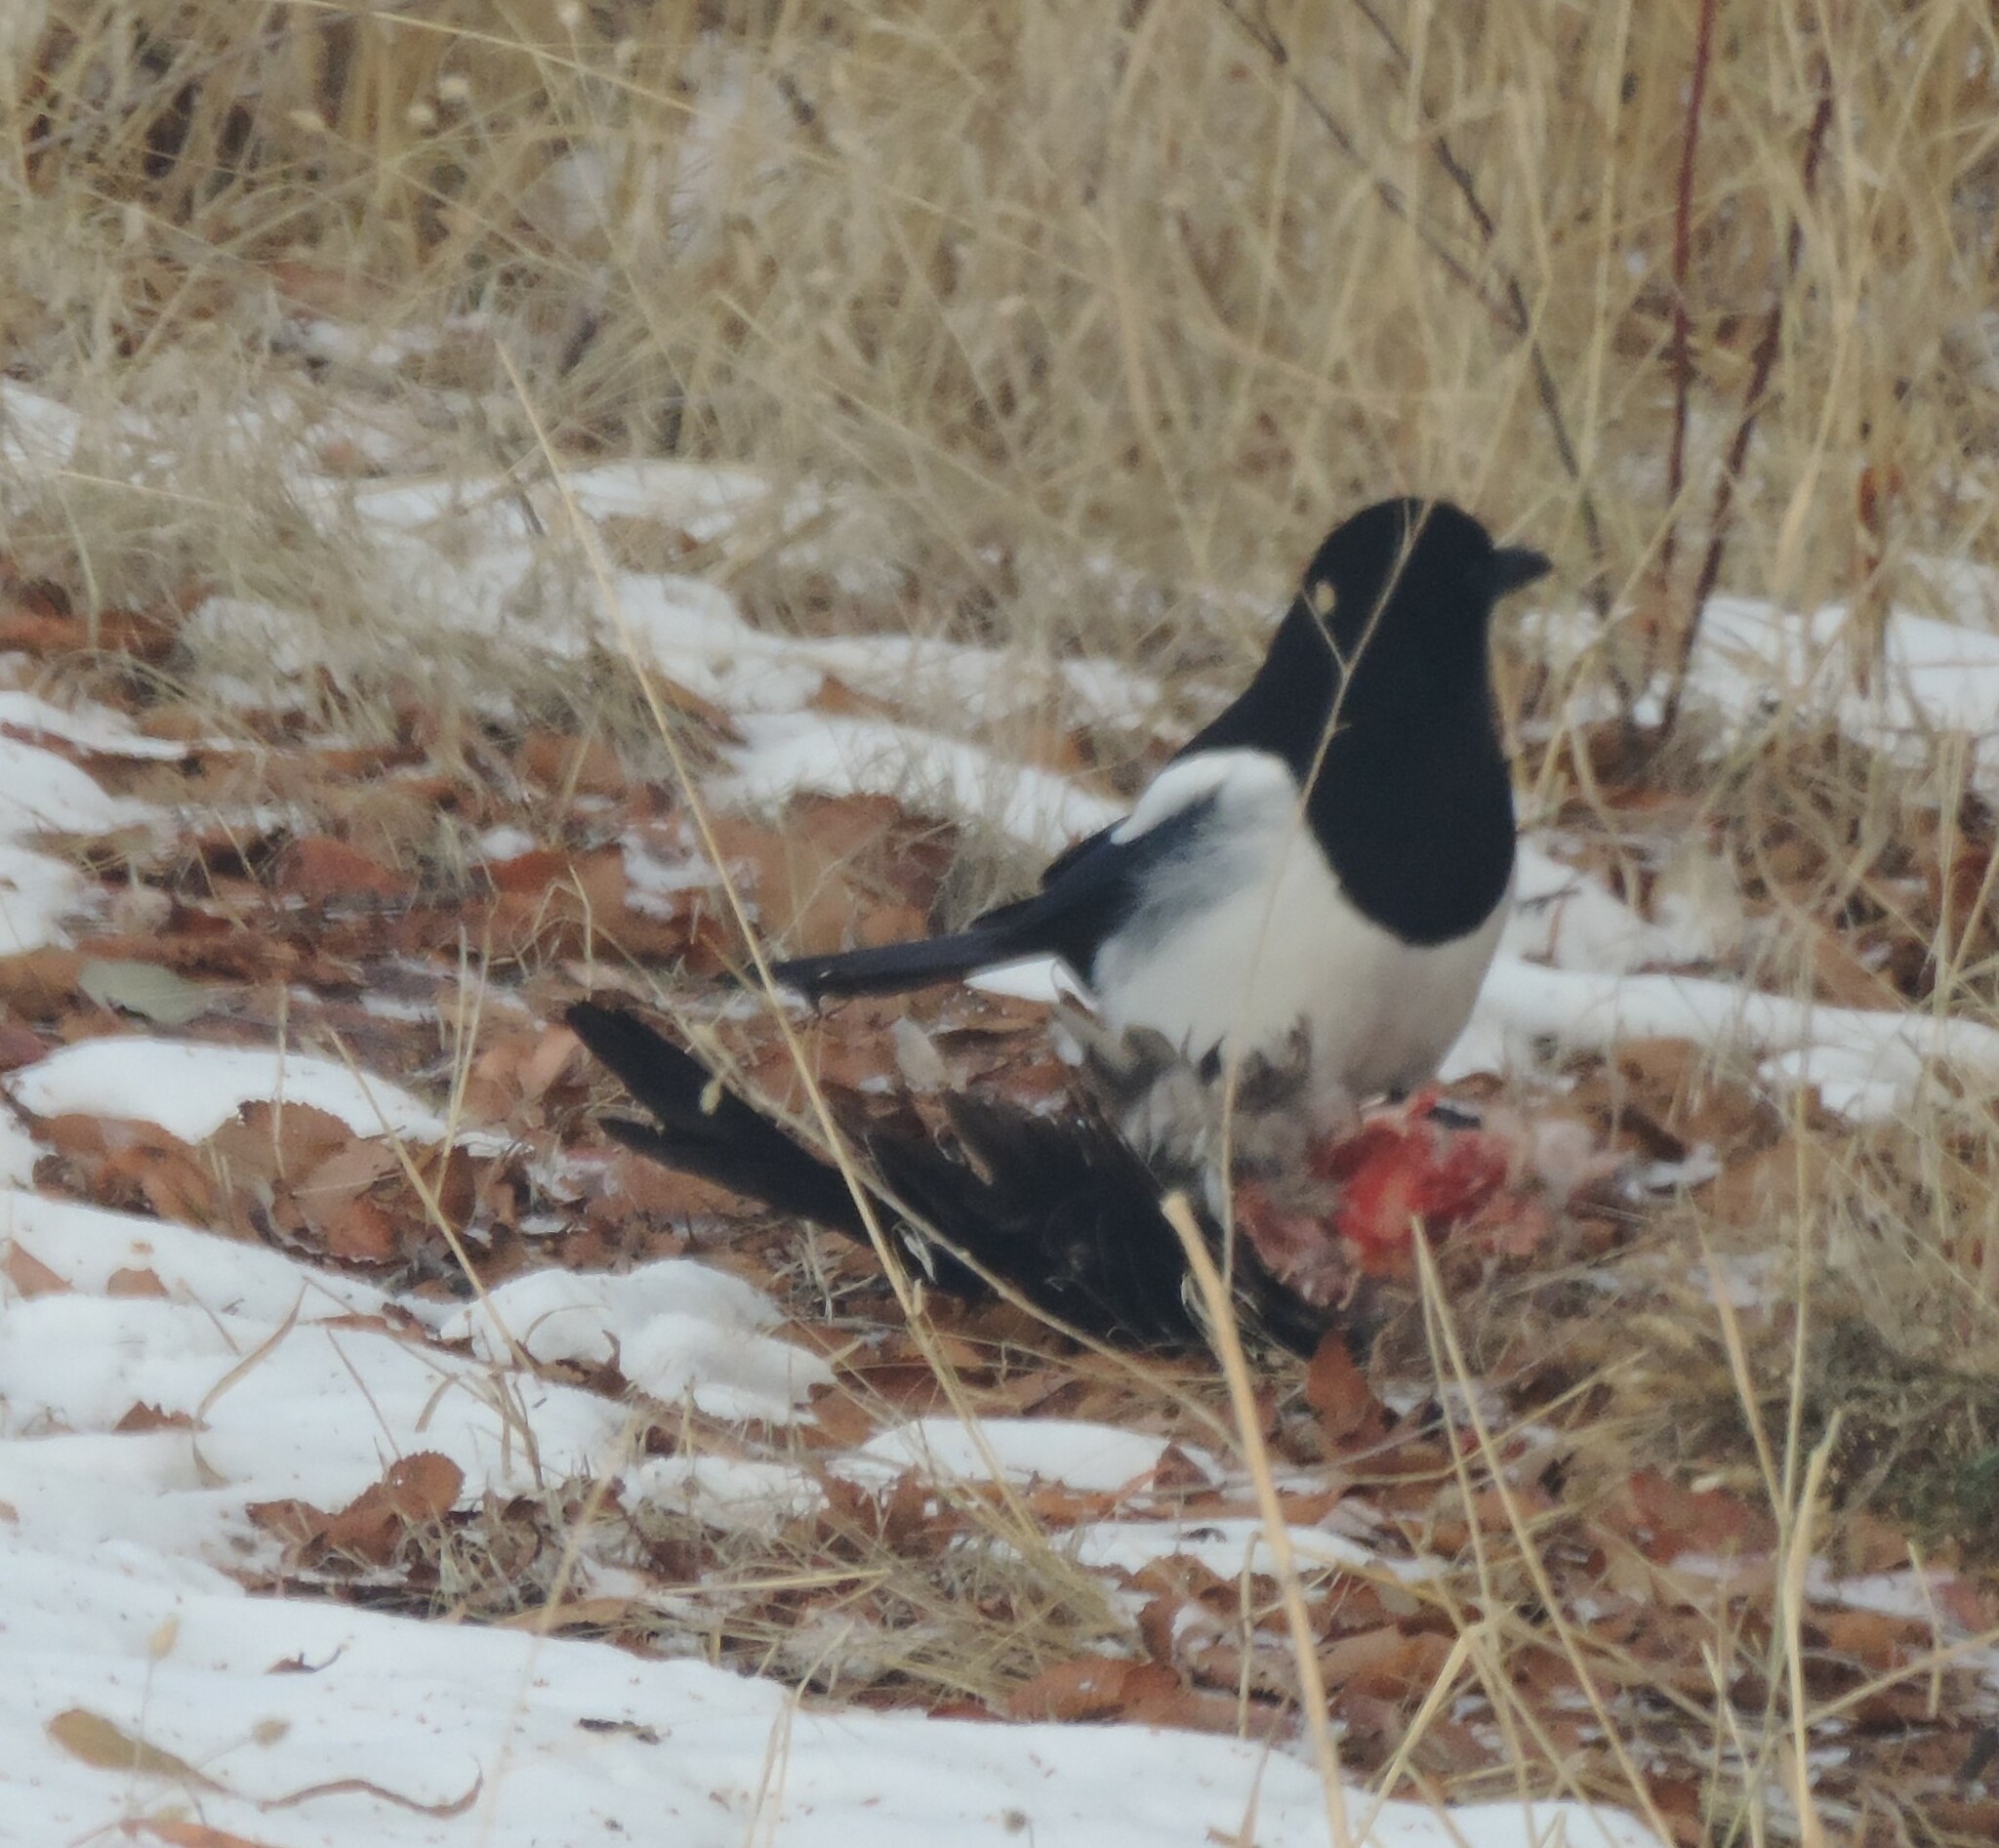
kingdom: Animalia
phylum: Chordata
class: Aves
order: Passeriformes
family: Corvidae
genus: Pica
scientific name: Pica hudsonia
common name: Black-billed magpie
